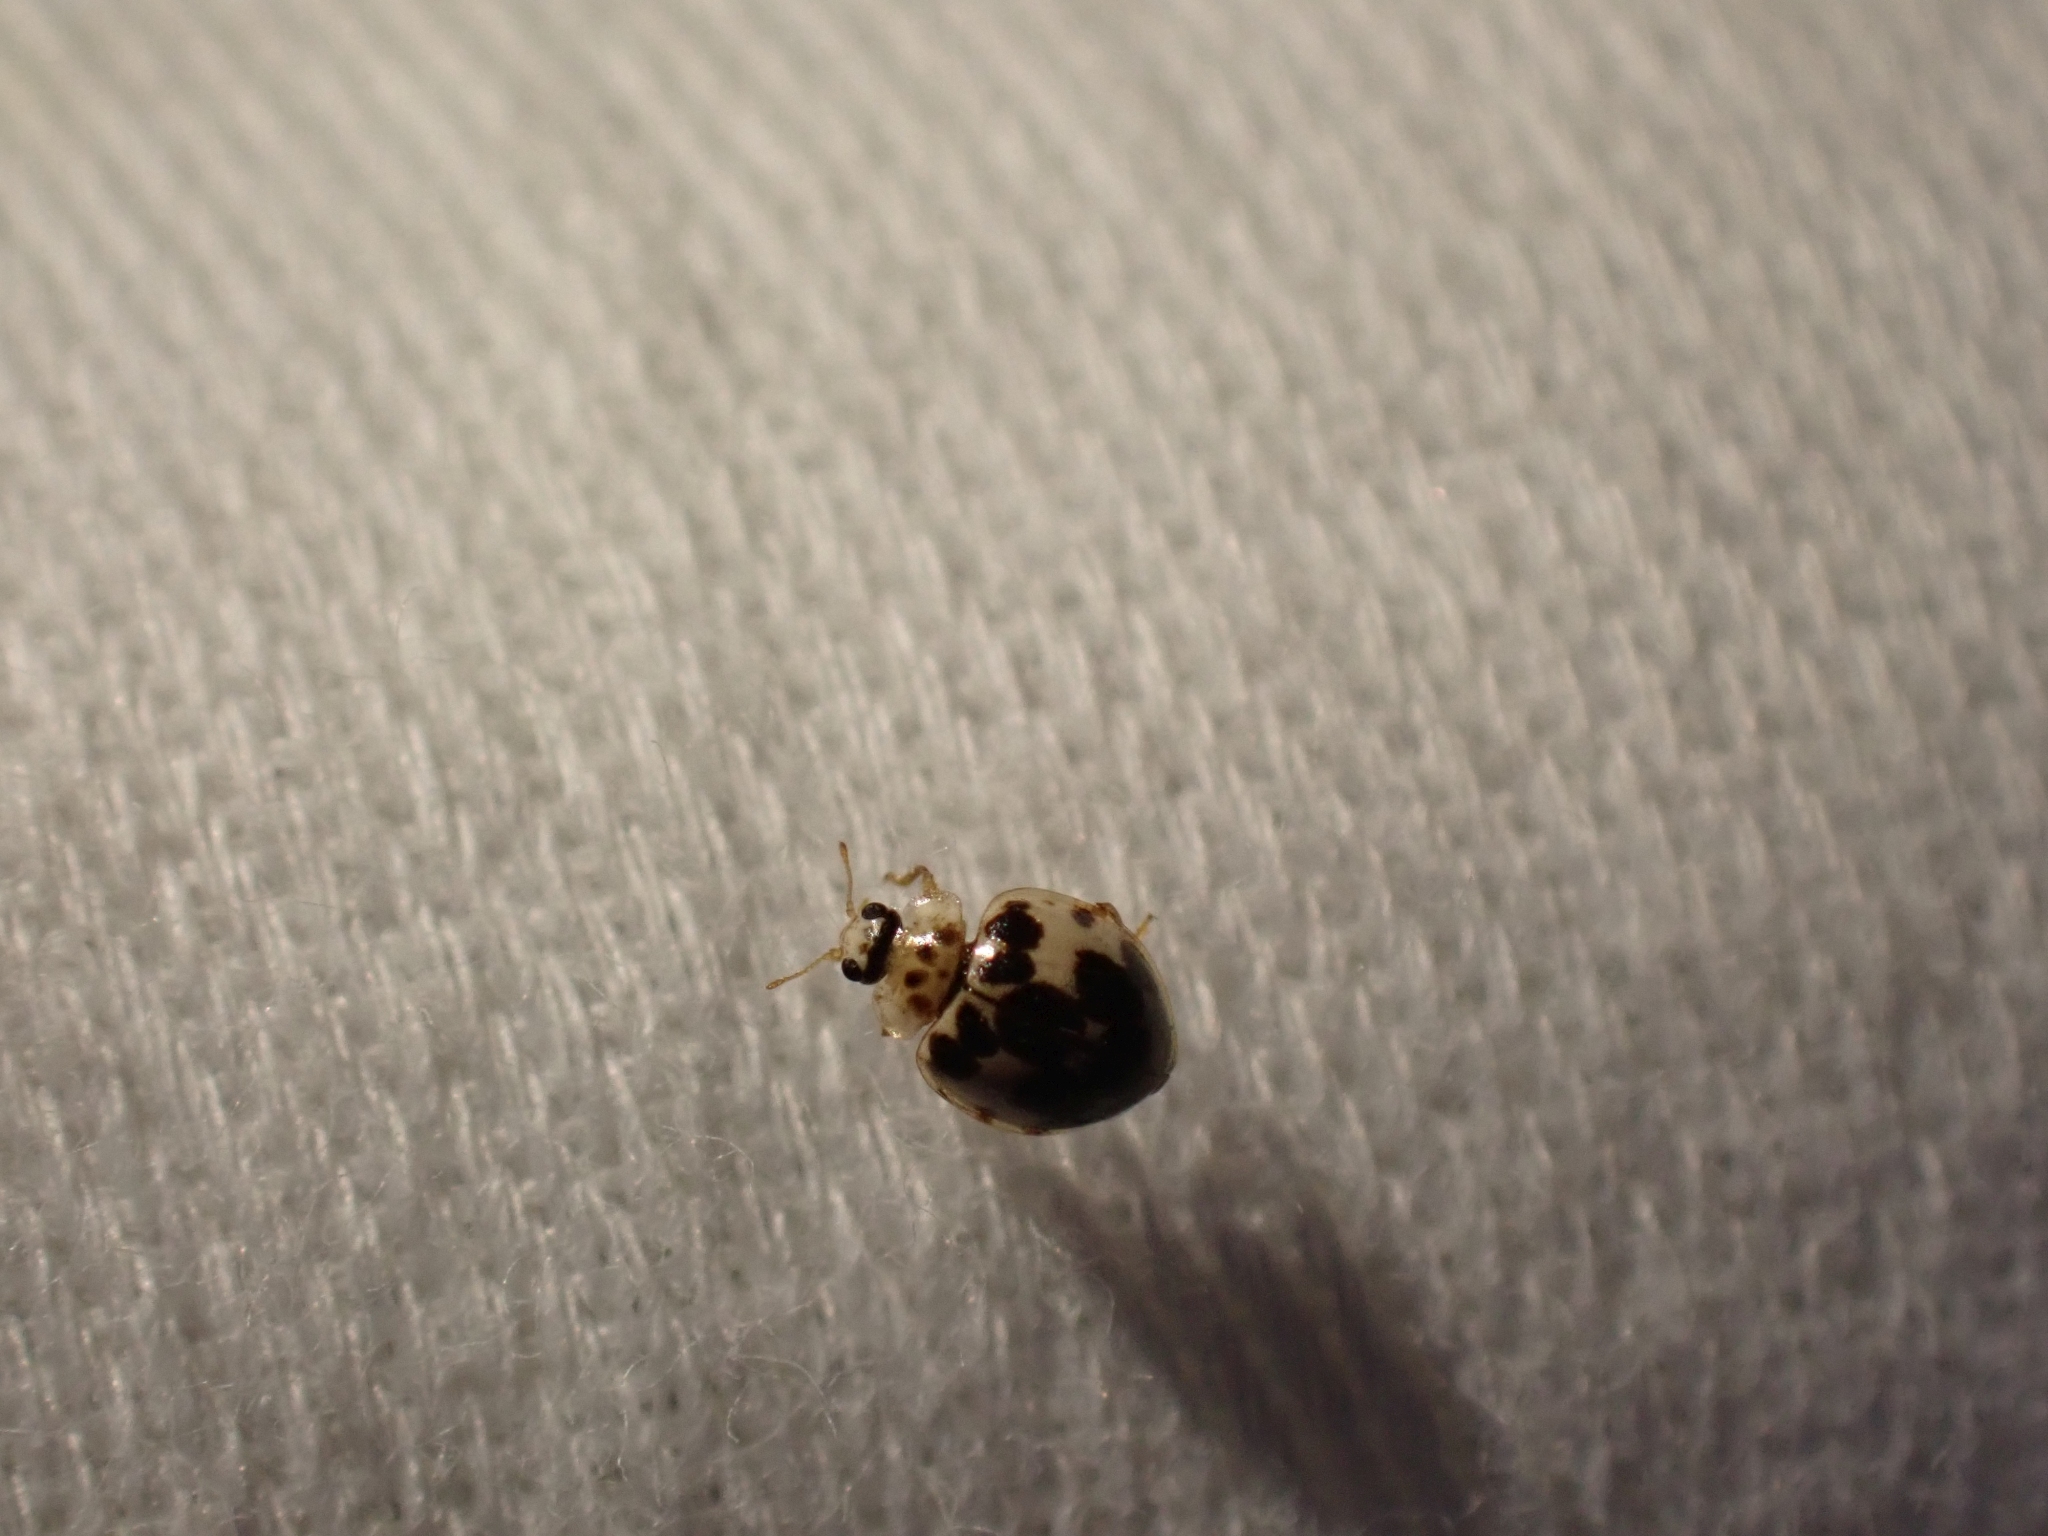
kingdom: Animalia
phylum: Arthropoda
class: Insecta
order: Coleoptera
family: Coccinellidae
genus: Psyllobora
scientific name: Psyllobora borealis
